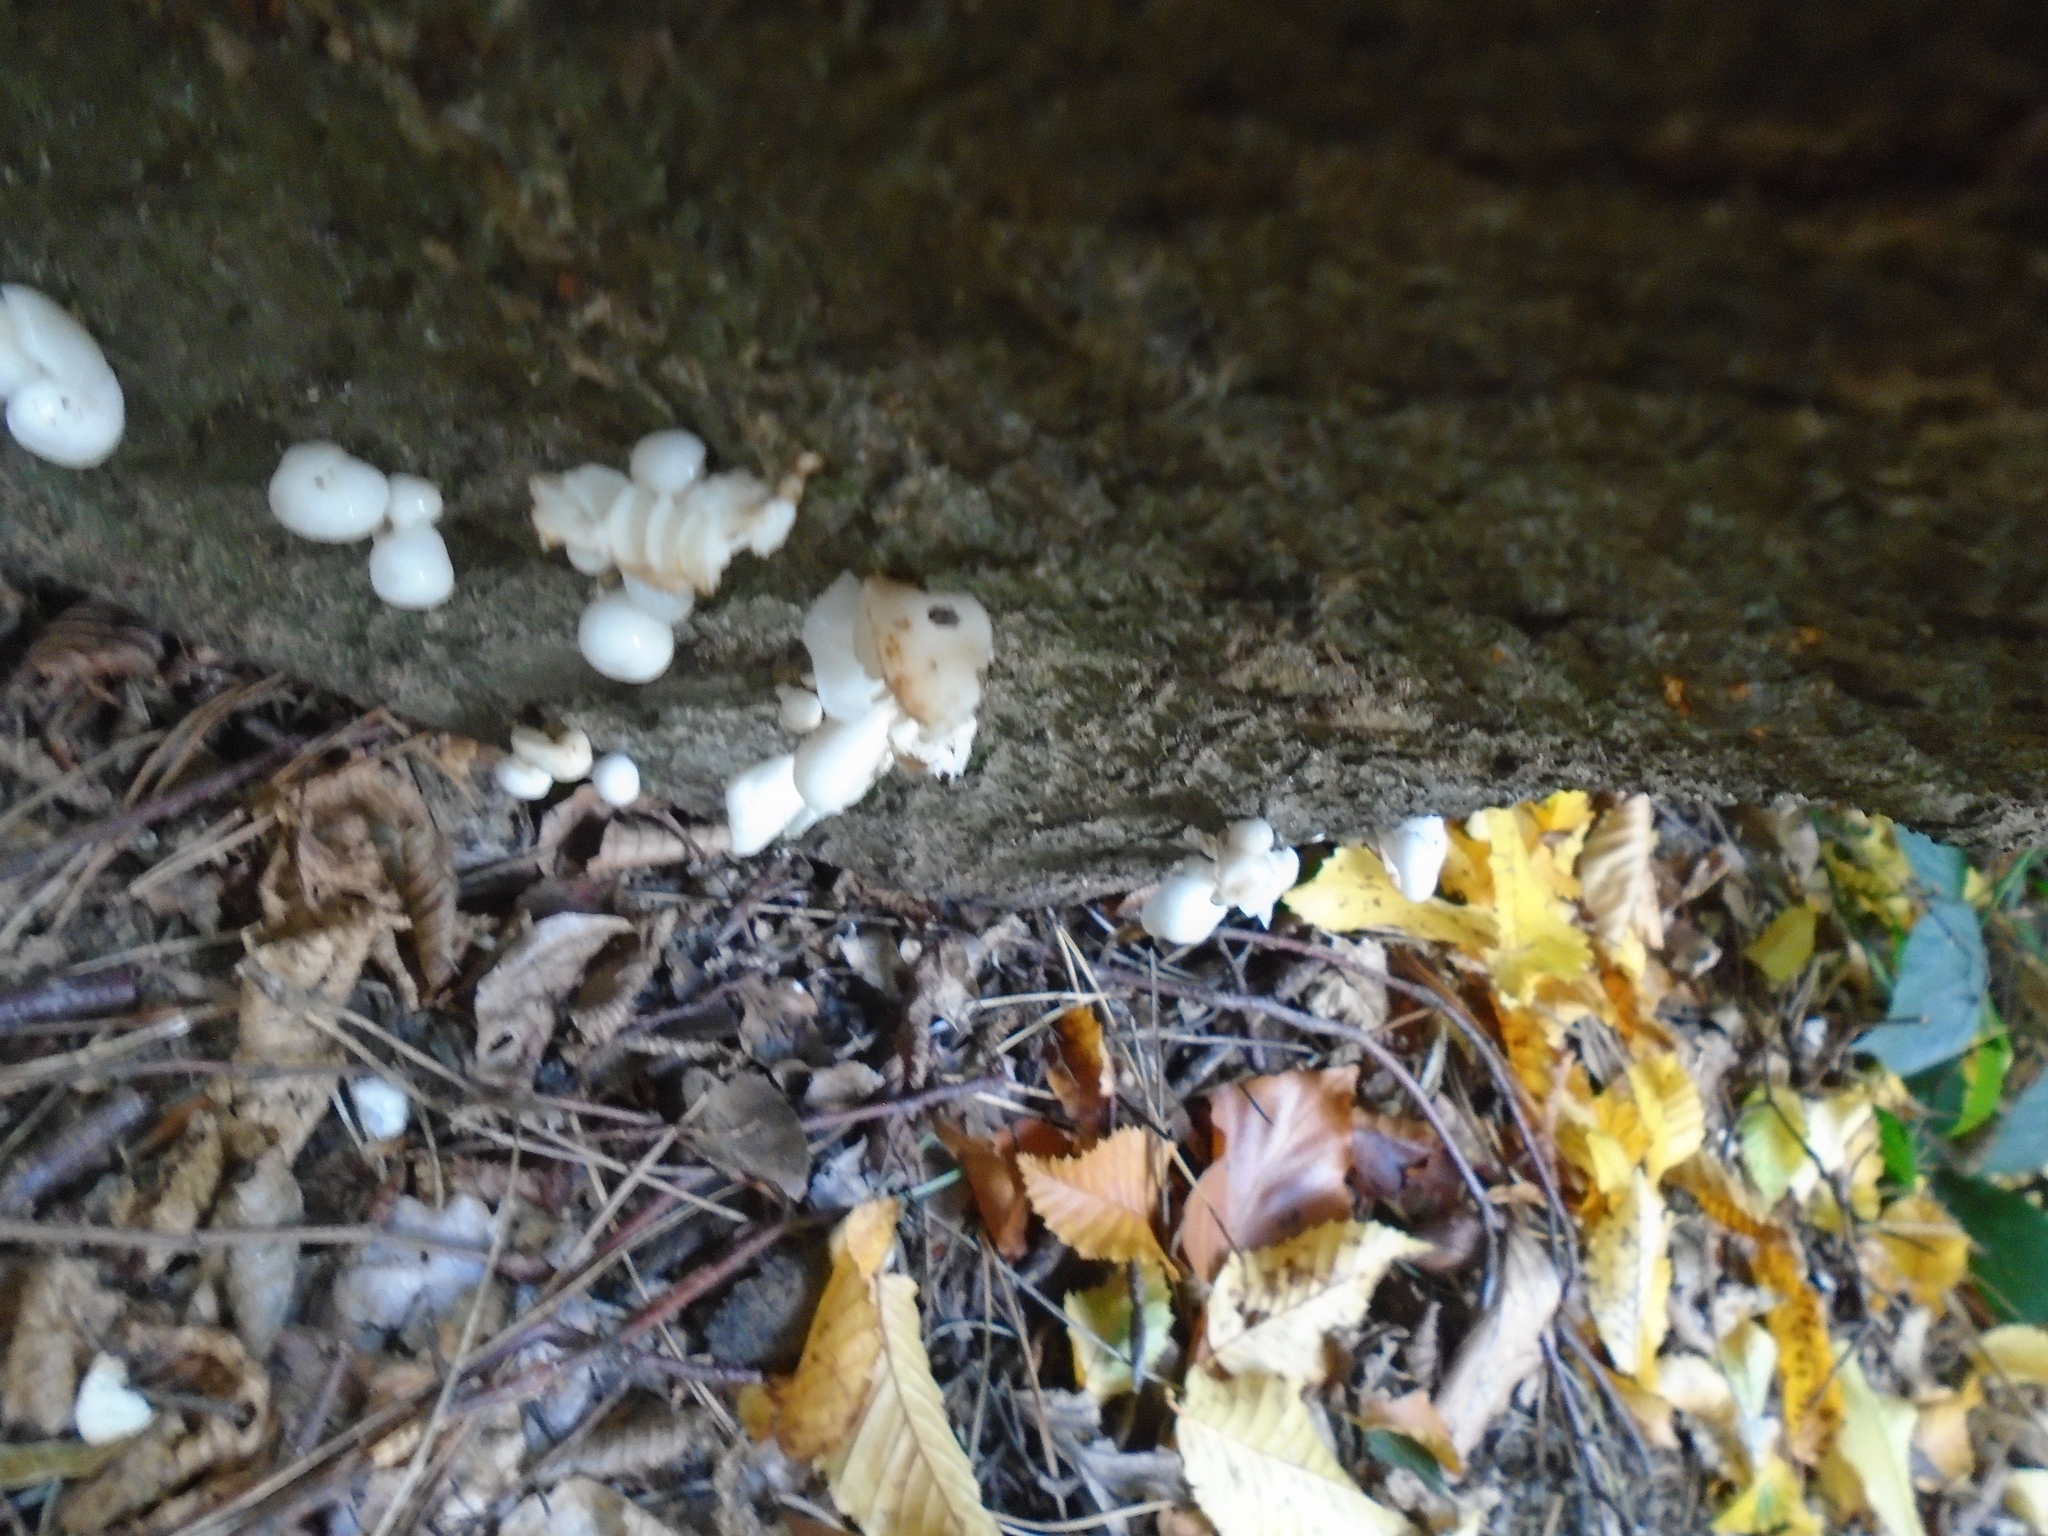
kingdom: Fungi
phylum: Basidiomycota
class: Agaricomycetes
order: Agaricales
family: Physalacriaceae
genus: Mucidula
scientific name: Mucidula mucida
